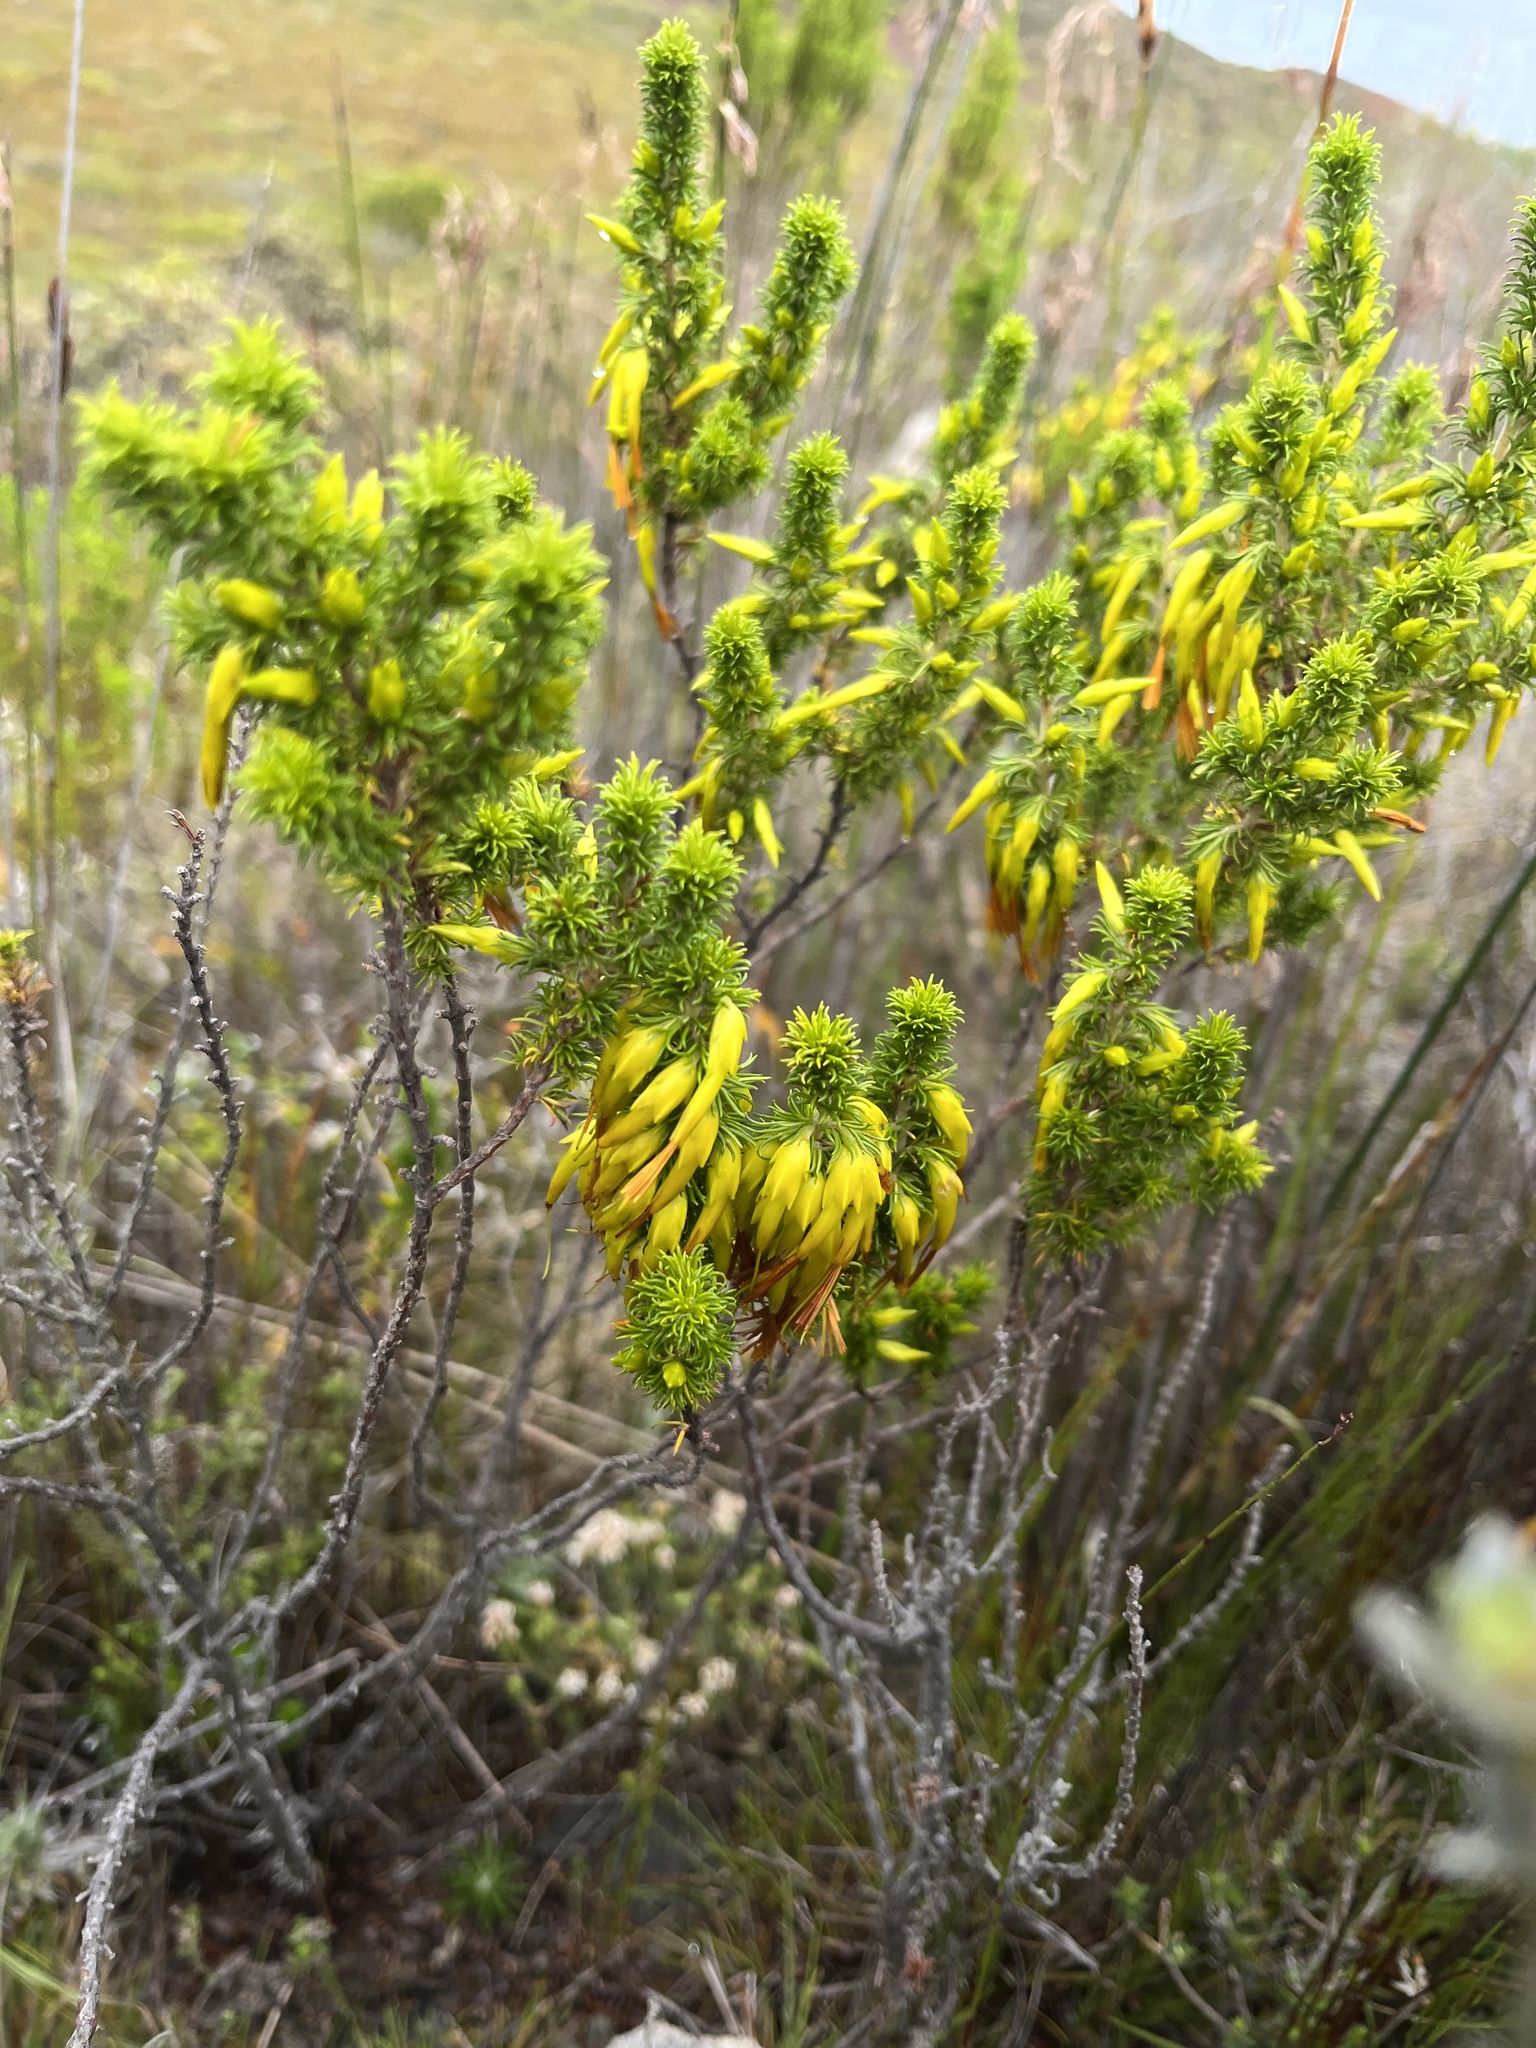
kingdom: Plantae
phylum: Tracheophyta
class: Magnoliopsida
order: Ericales
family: Ericaceae
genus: Erica
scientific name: Erica coccinea
